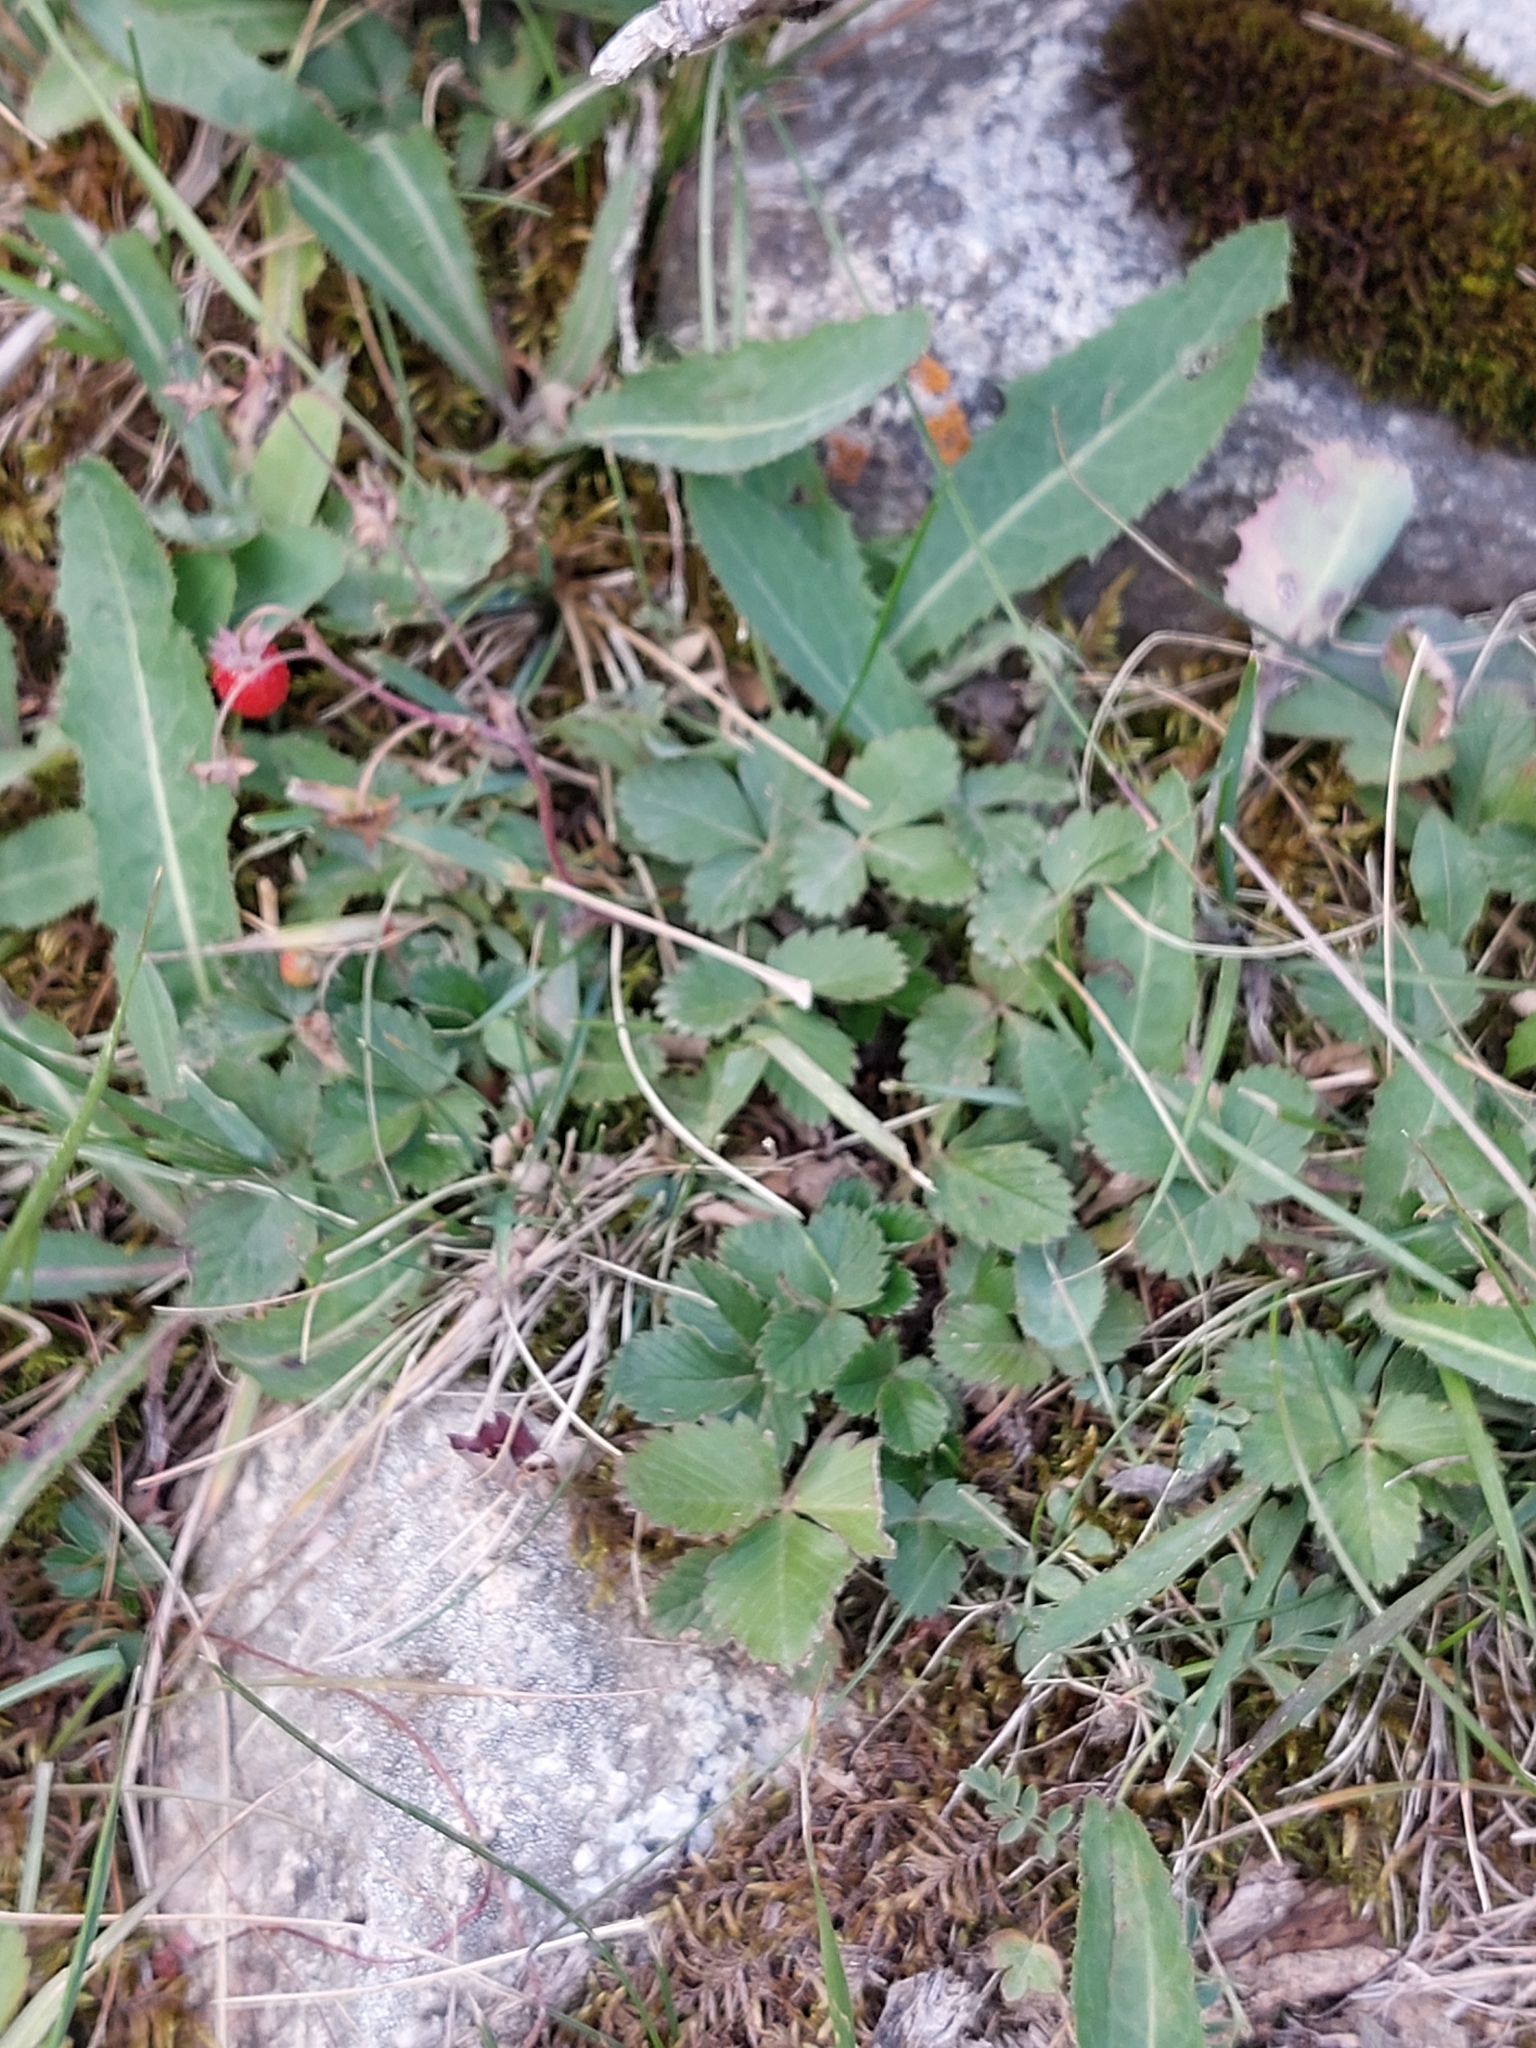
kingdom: Plantae
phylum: Tracheophyta
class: Magnoliopsida
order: Rosales
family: Rosaceae
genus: Fragaria
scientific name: Fragaria vesca
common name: Wild strawberry
